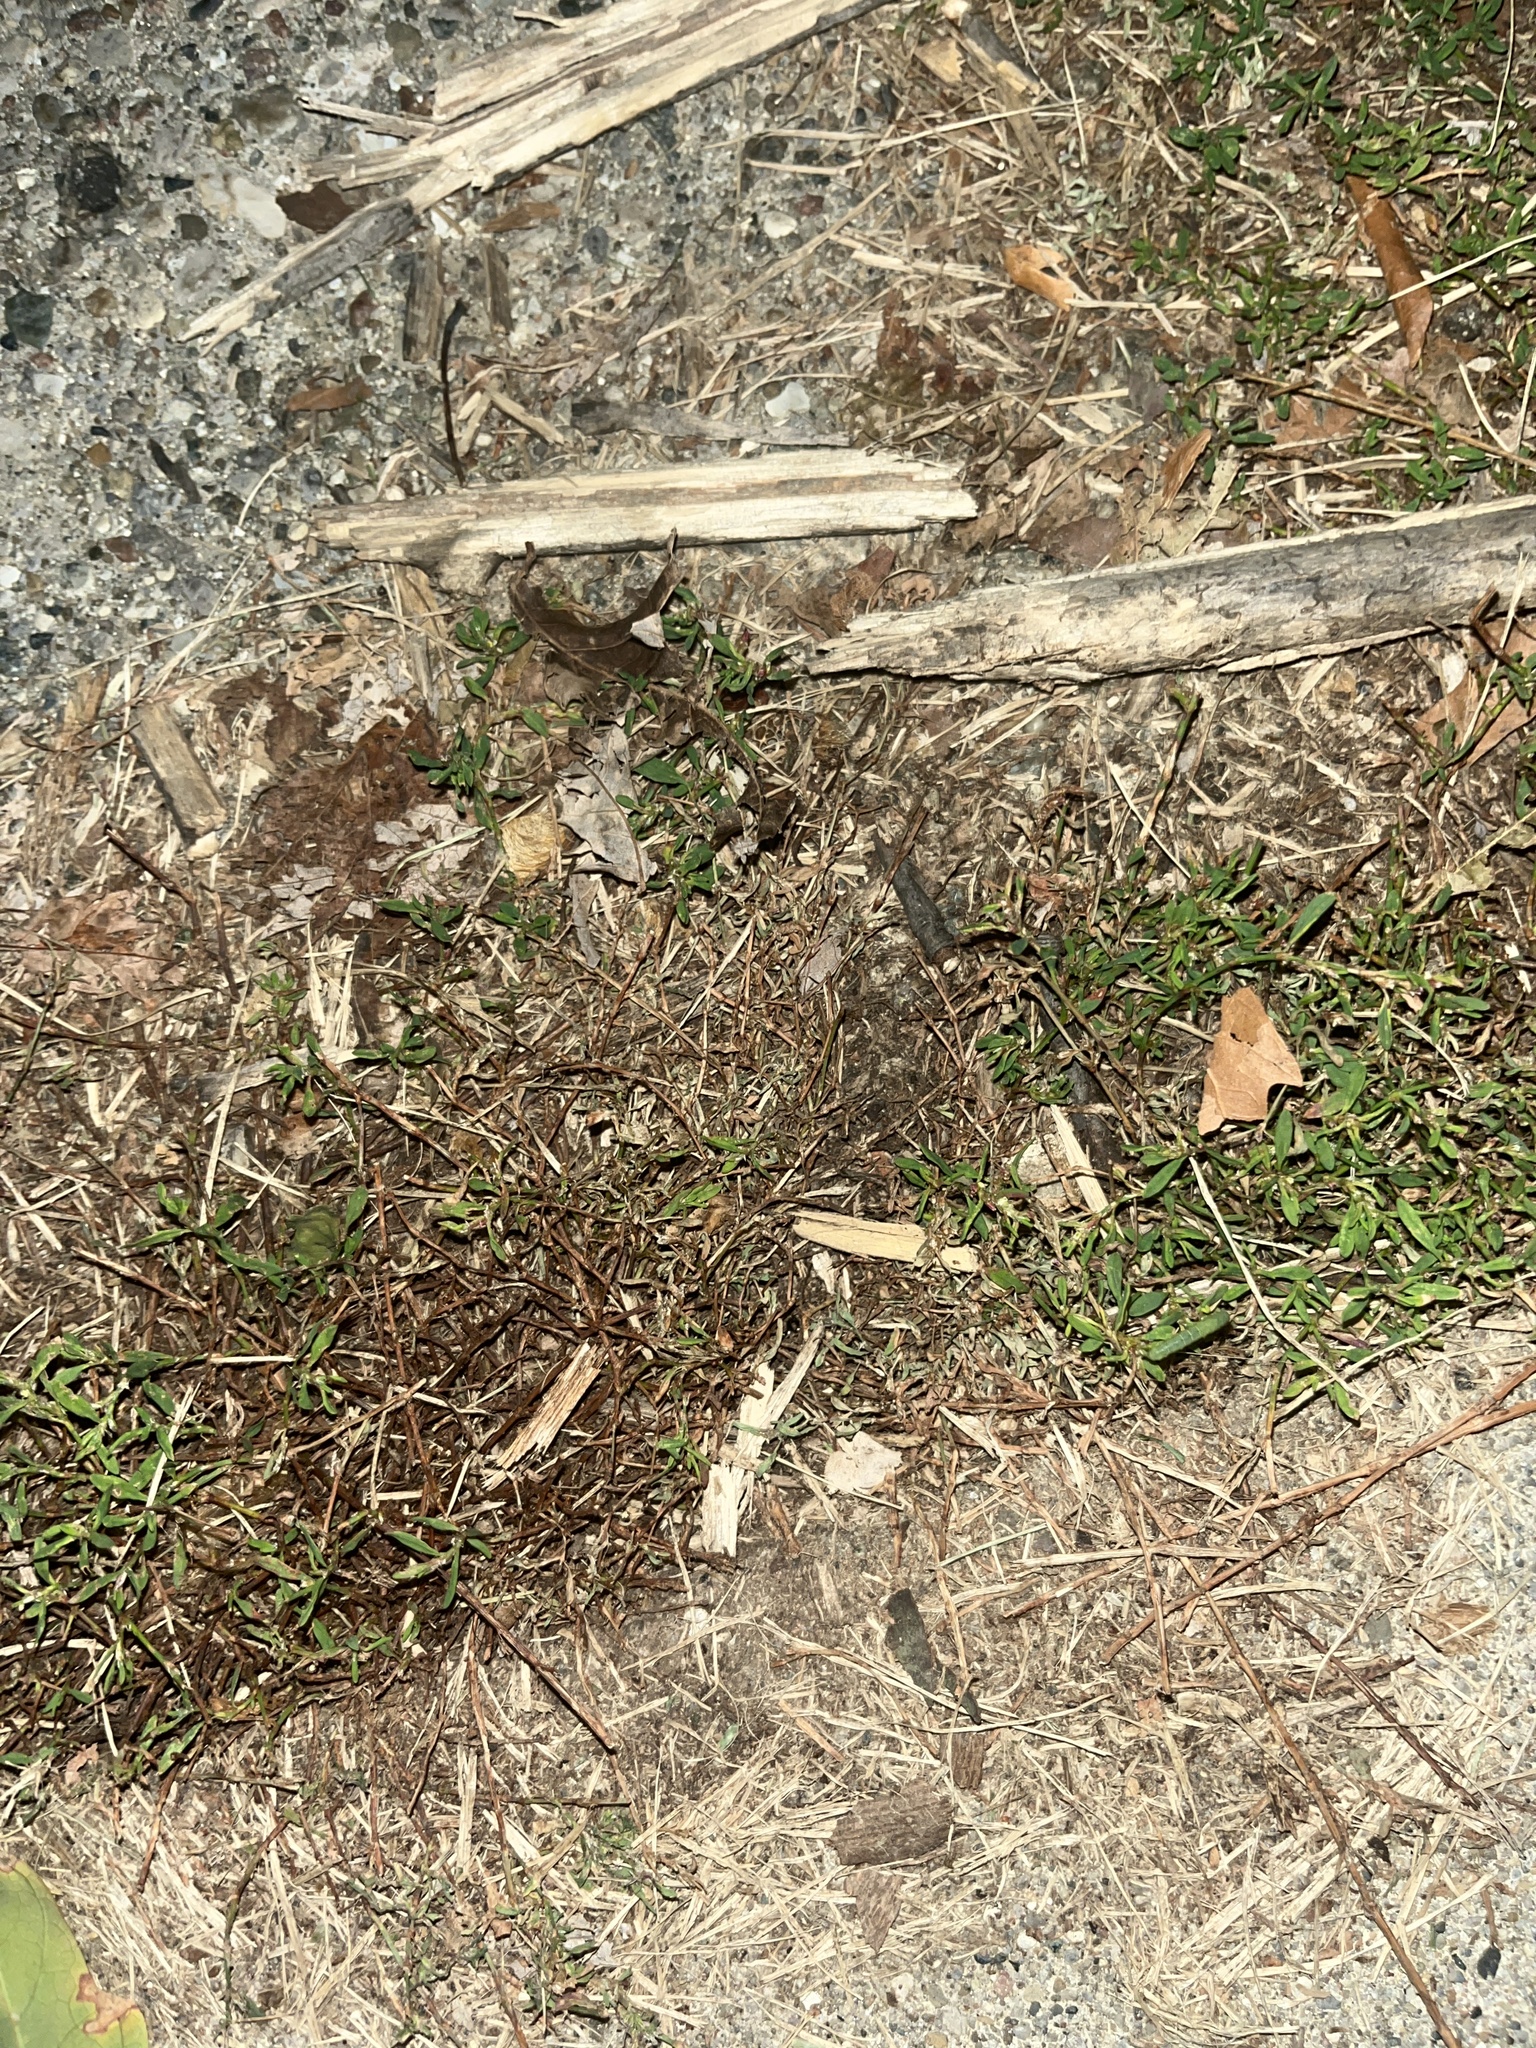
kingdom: Plantae
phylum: Tracheophyta
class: Magnoliopsida
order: Caryophyllales
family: Polygonaceae
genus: Polygonum
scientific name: Polygonum aviculare
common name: Prostrate knotweed
